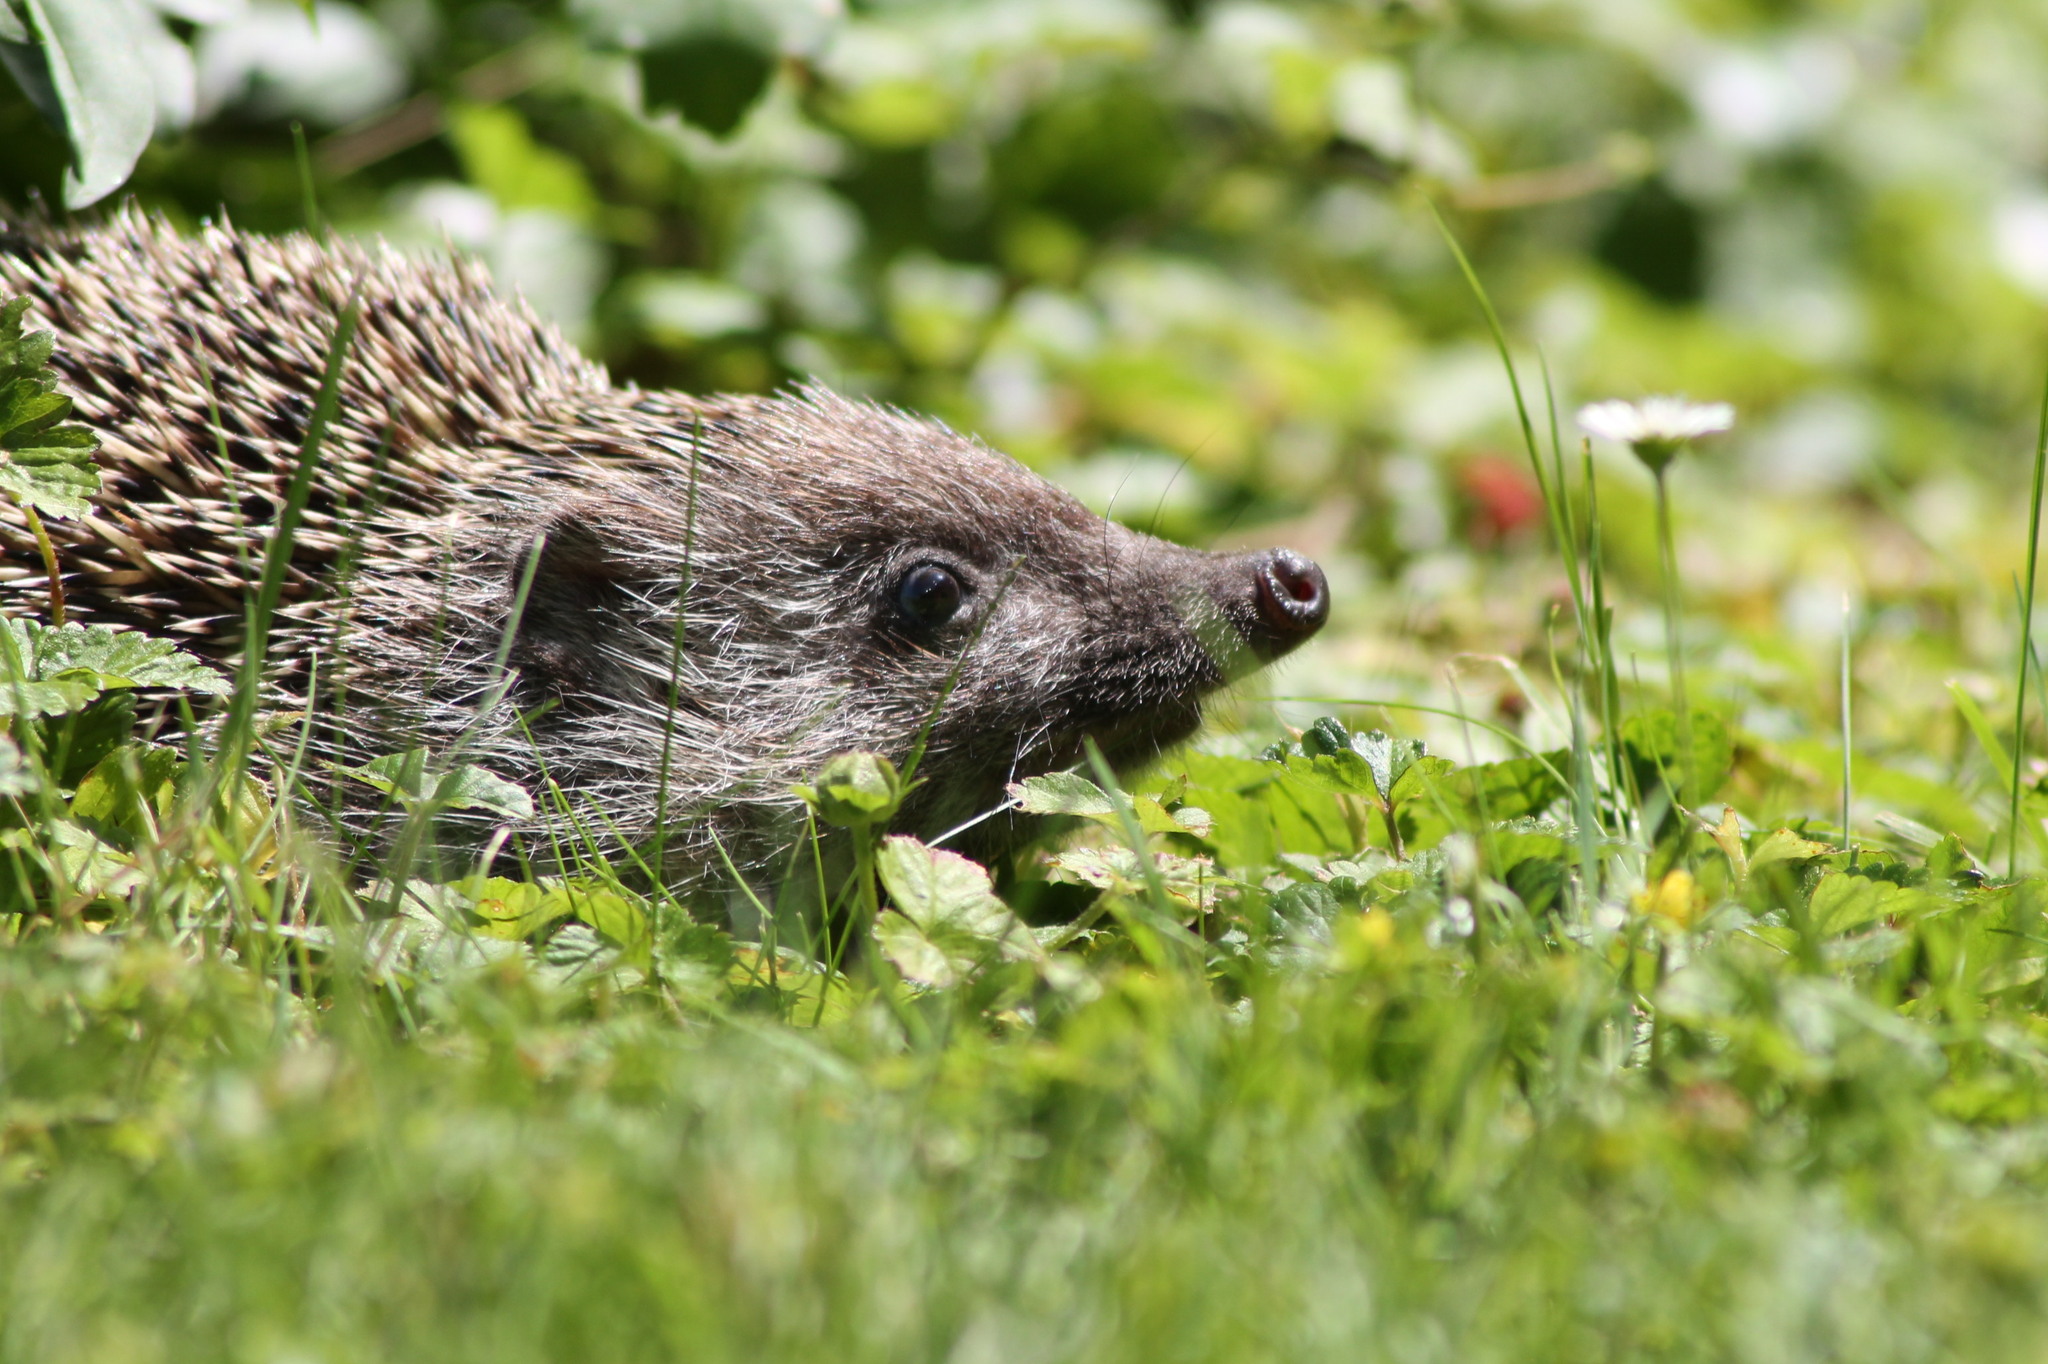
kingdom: Animalia
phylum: Chordata
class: Mammalia
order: Erinaceomorpha
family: Erinaceidae
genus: Erinaceus
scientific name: Erinaceus roumanicus
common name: Northern white-breasted hedgehog
